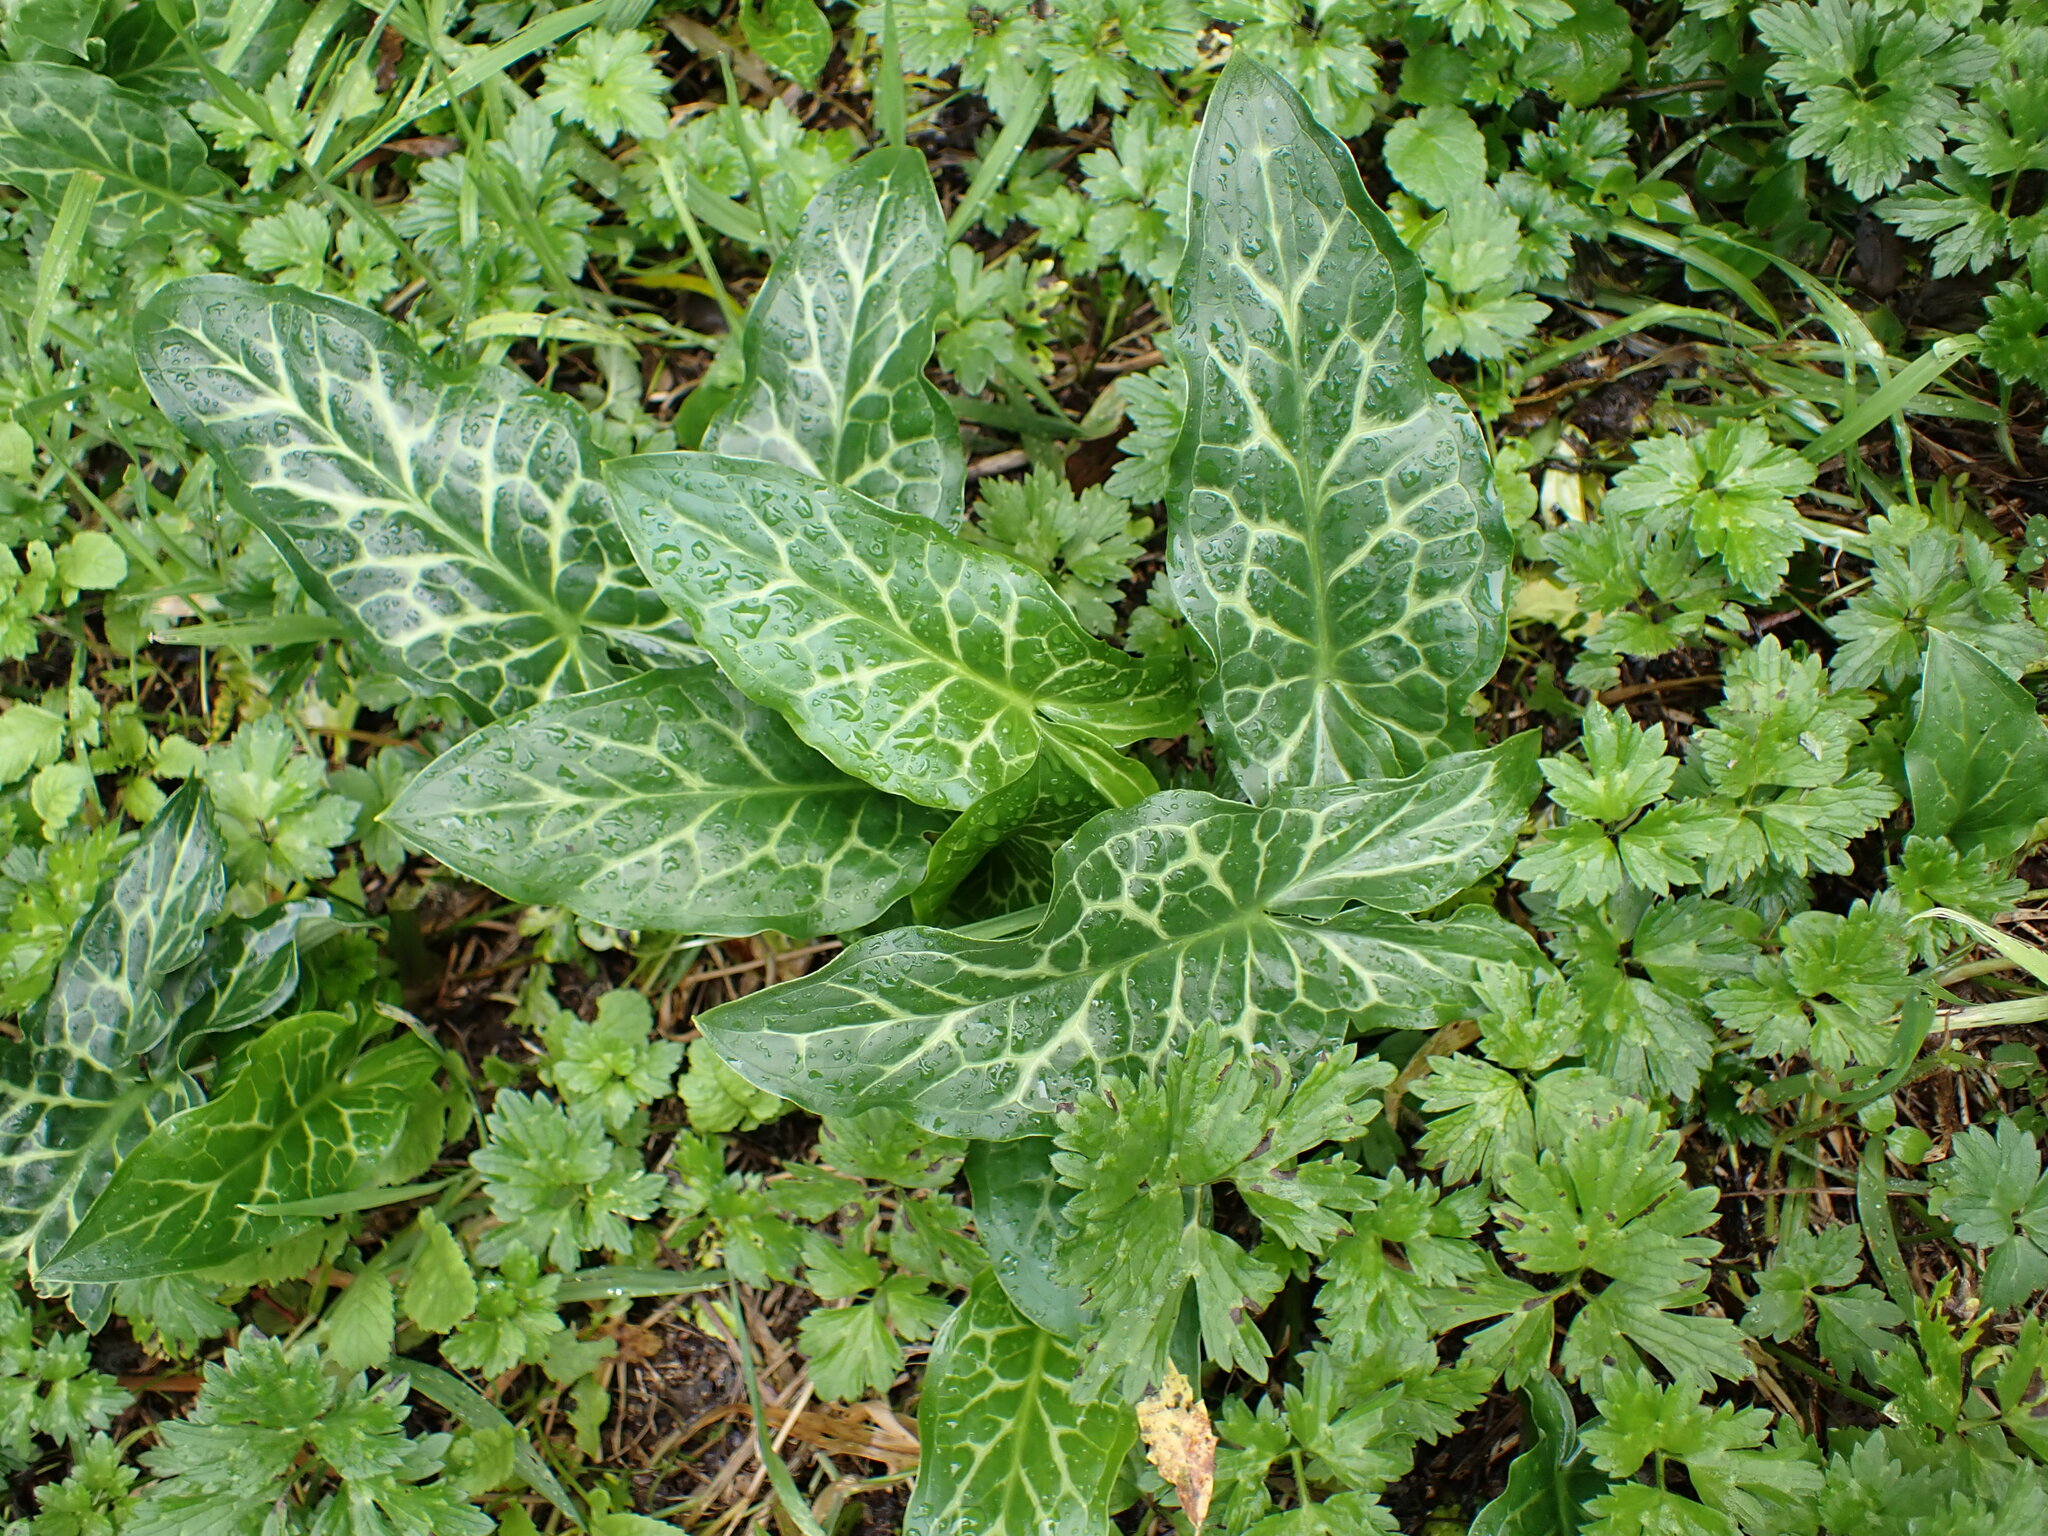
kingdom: Plantae
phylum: Tracheophyta
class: Liliopsida
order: Alismatales
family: Araceae
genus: Arum
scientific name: Arum italicum
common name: Italian lords-and-ladies
